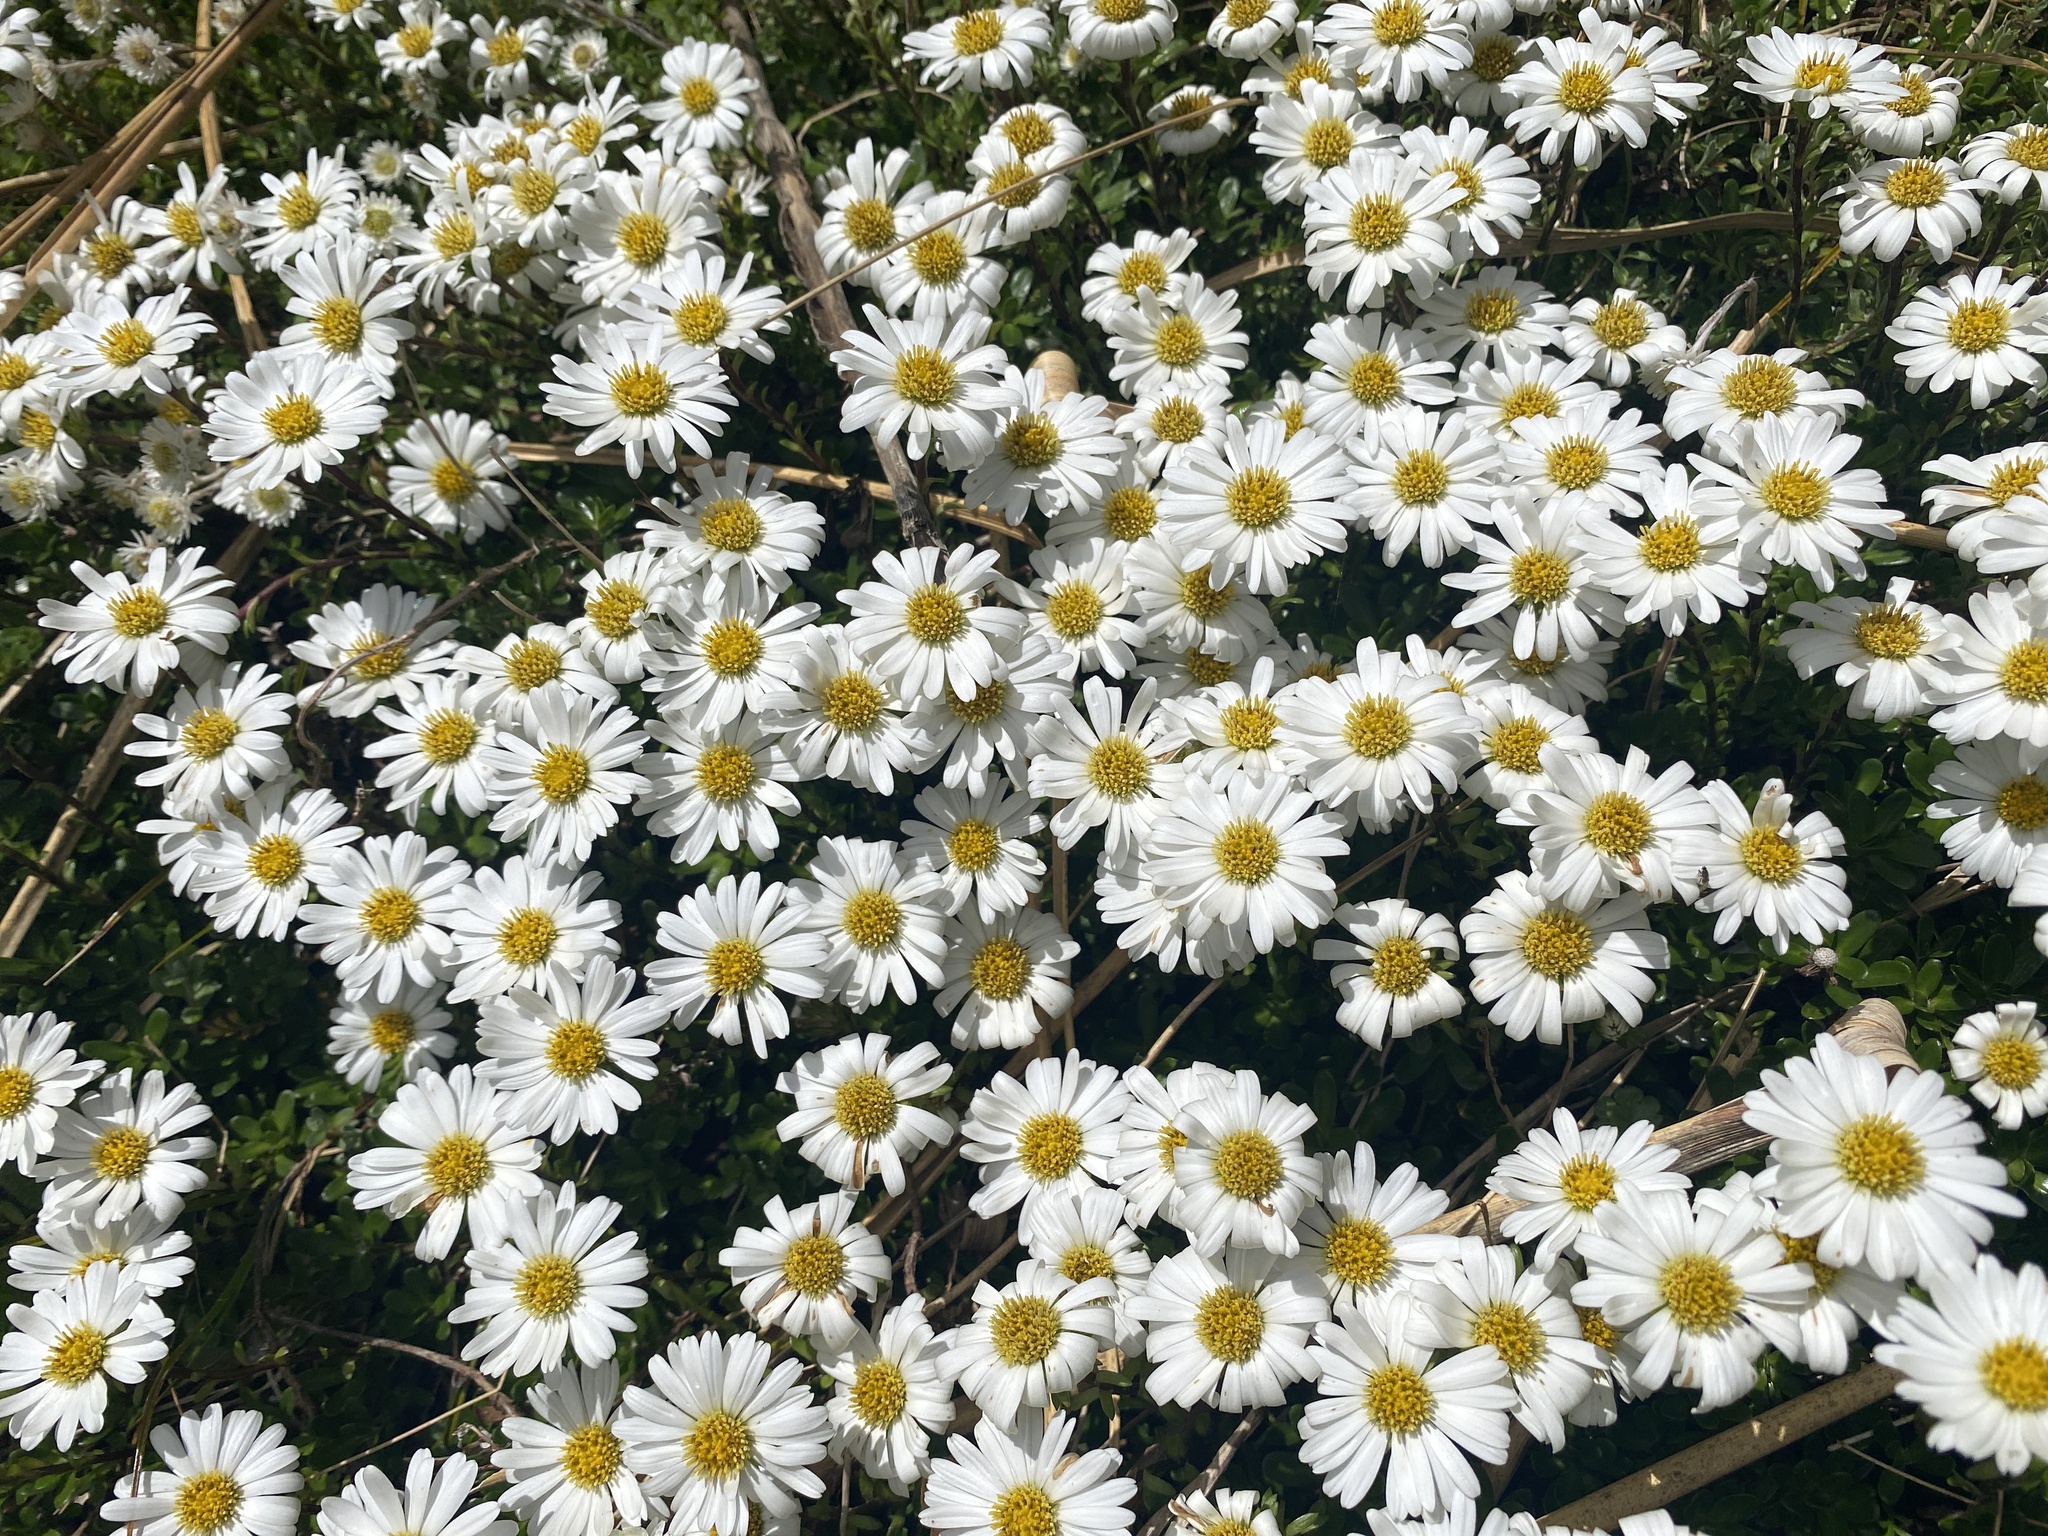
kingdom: Plantae
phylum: Tracheophyta
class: Magnoliopsida
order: Asterales
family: Asteraceae
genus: Celmisia
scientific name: Celmisia bellidioides
